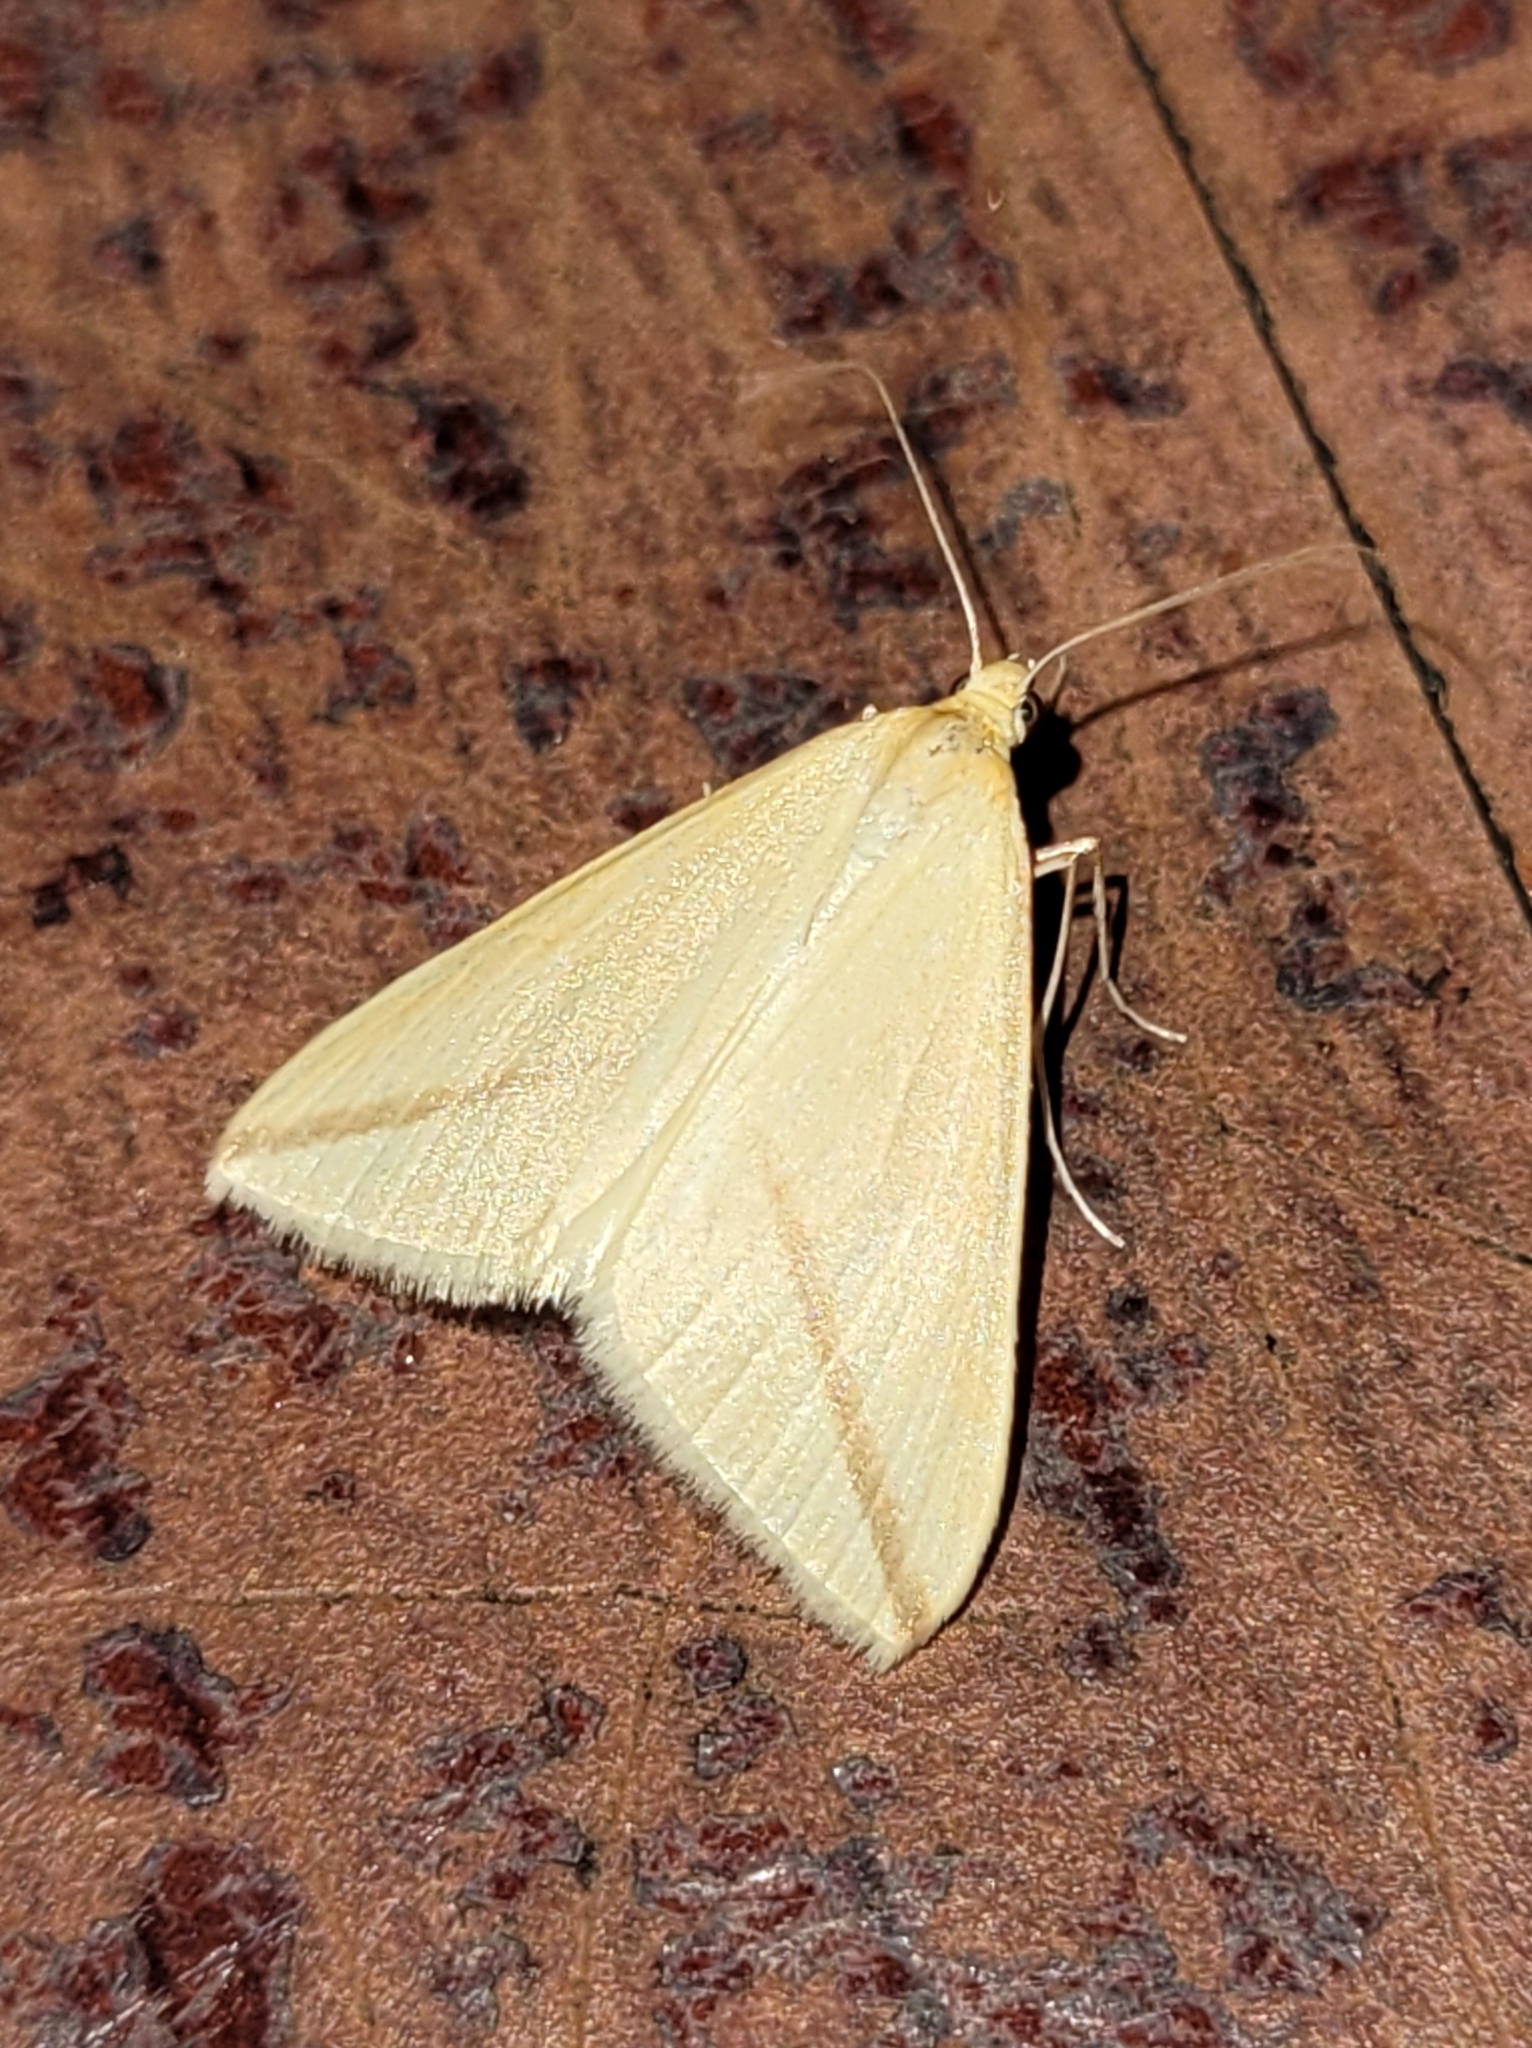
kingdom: Animalia
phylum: Arthropoda
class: Insecta
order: Lepidoptera
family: Geometridae
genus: Rhodometra
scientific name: Rhodometra sacraria
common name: Vestal
